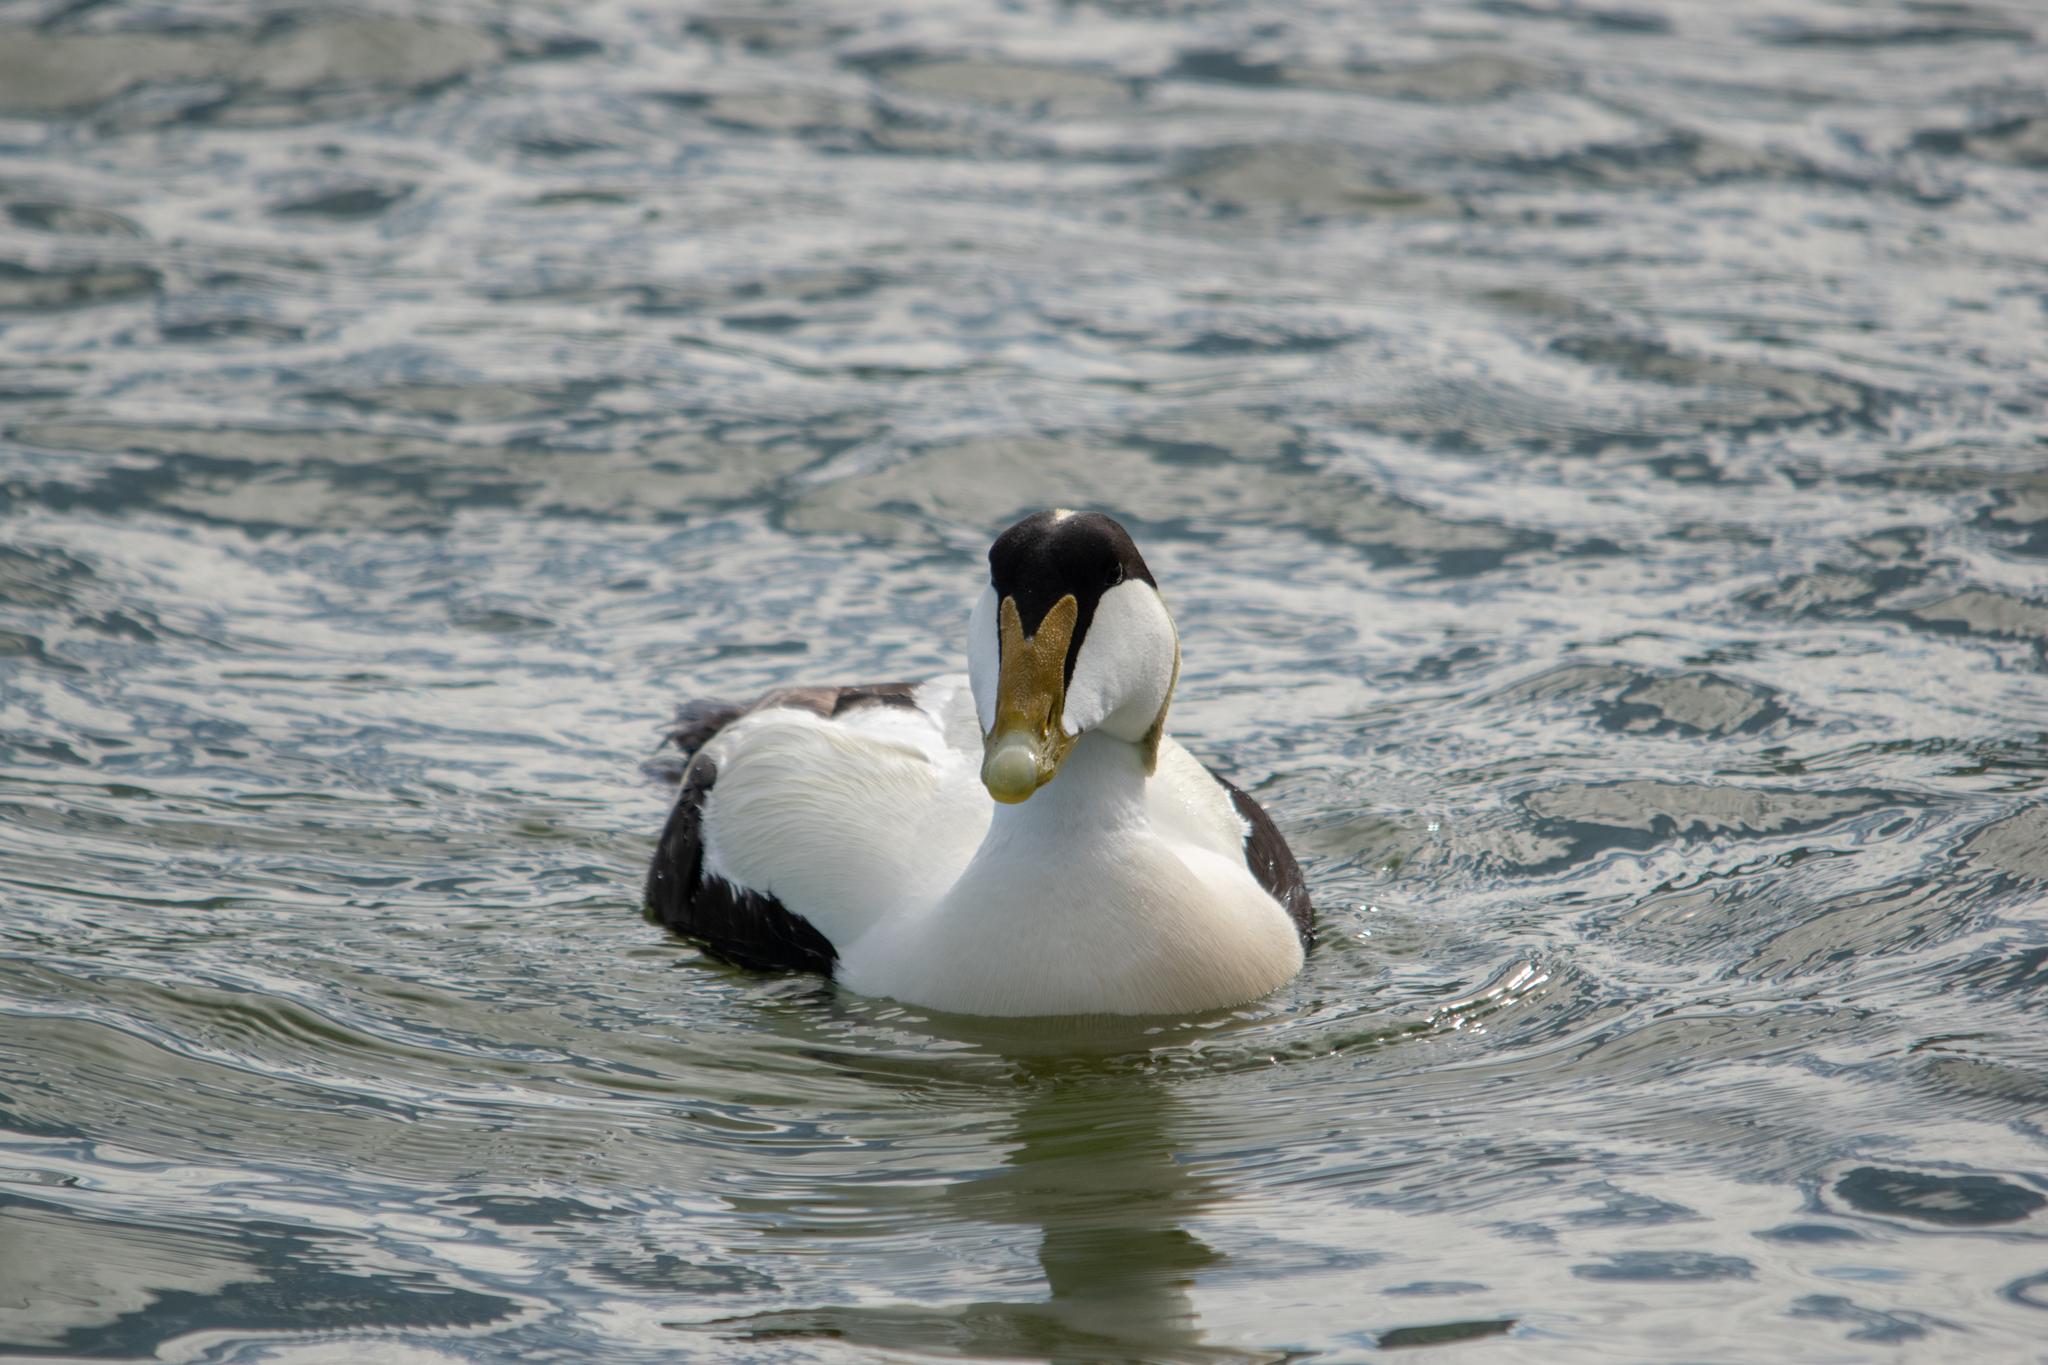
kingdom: Animalia
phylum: Chordata
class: Aves
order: Anseriformes
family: Anatidae
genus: Somateria
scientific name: Somateria mollissima
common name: Common eider
